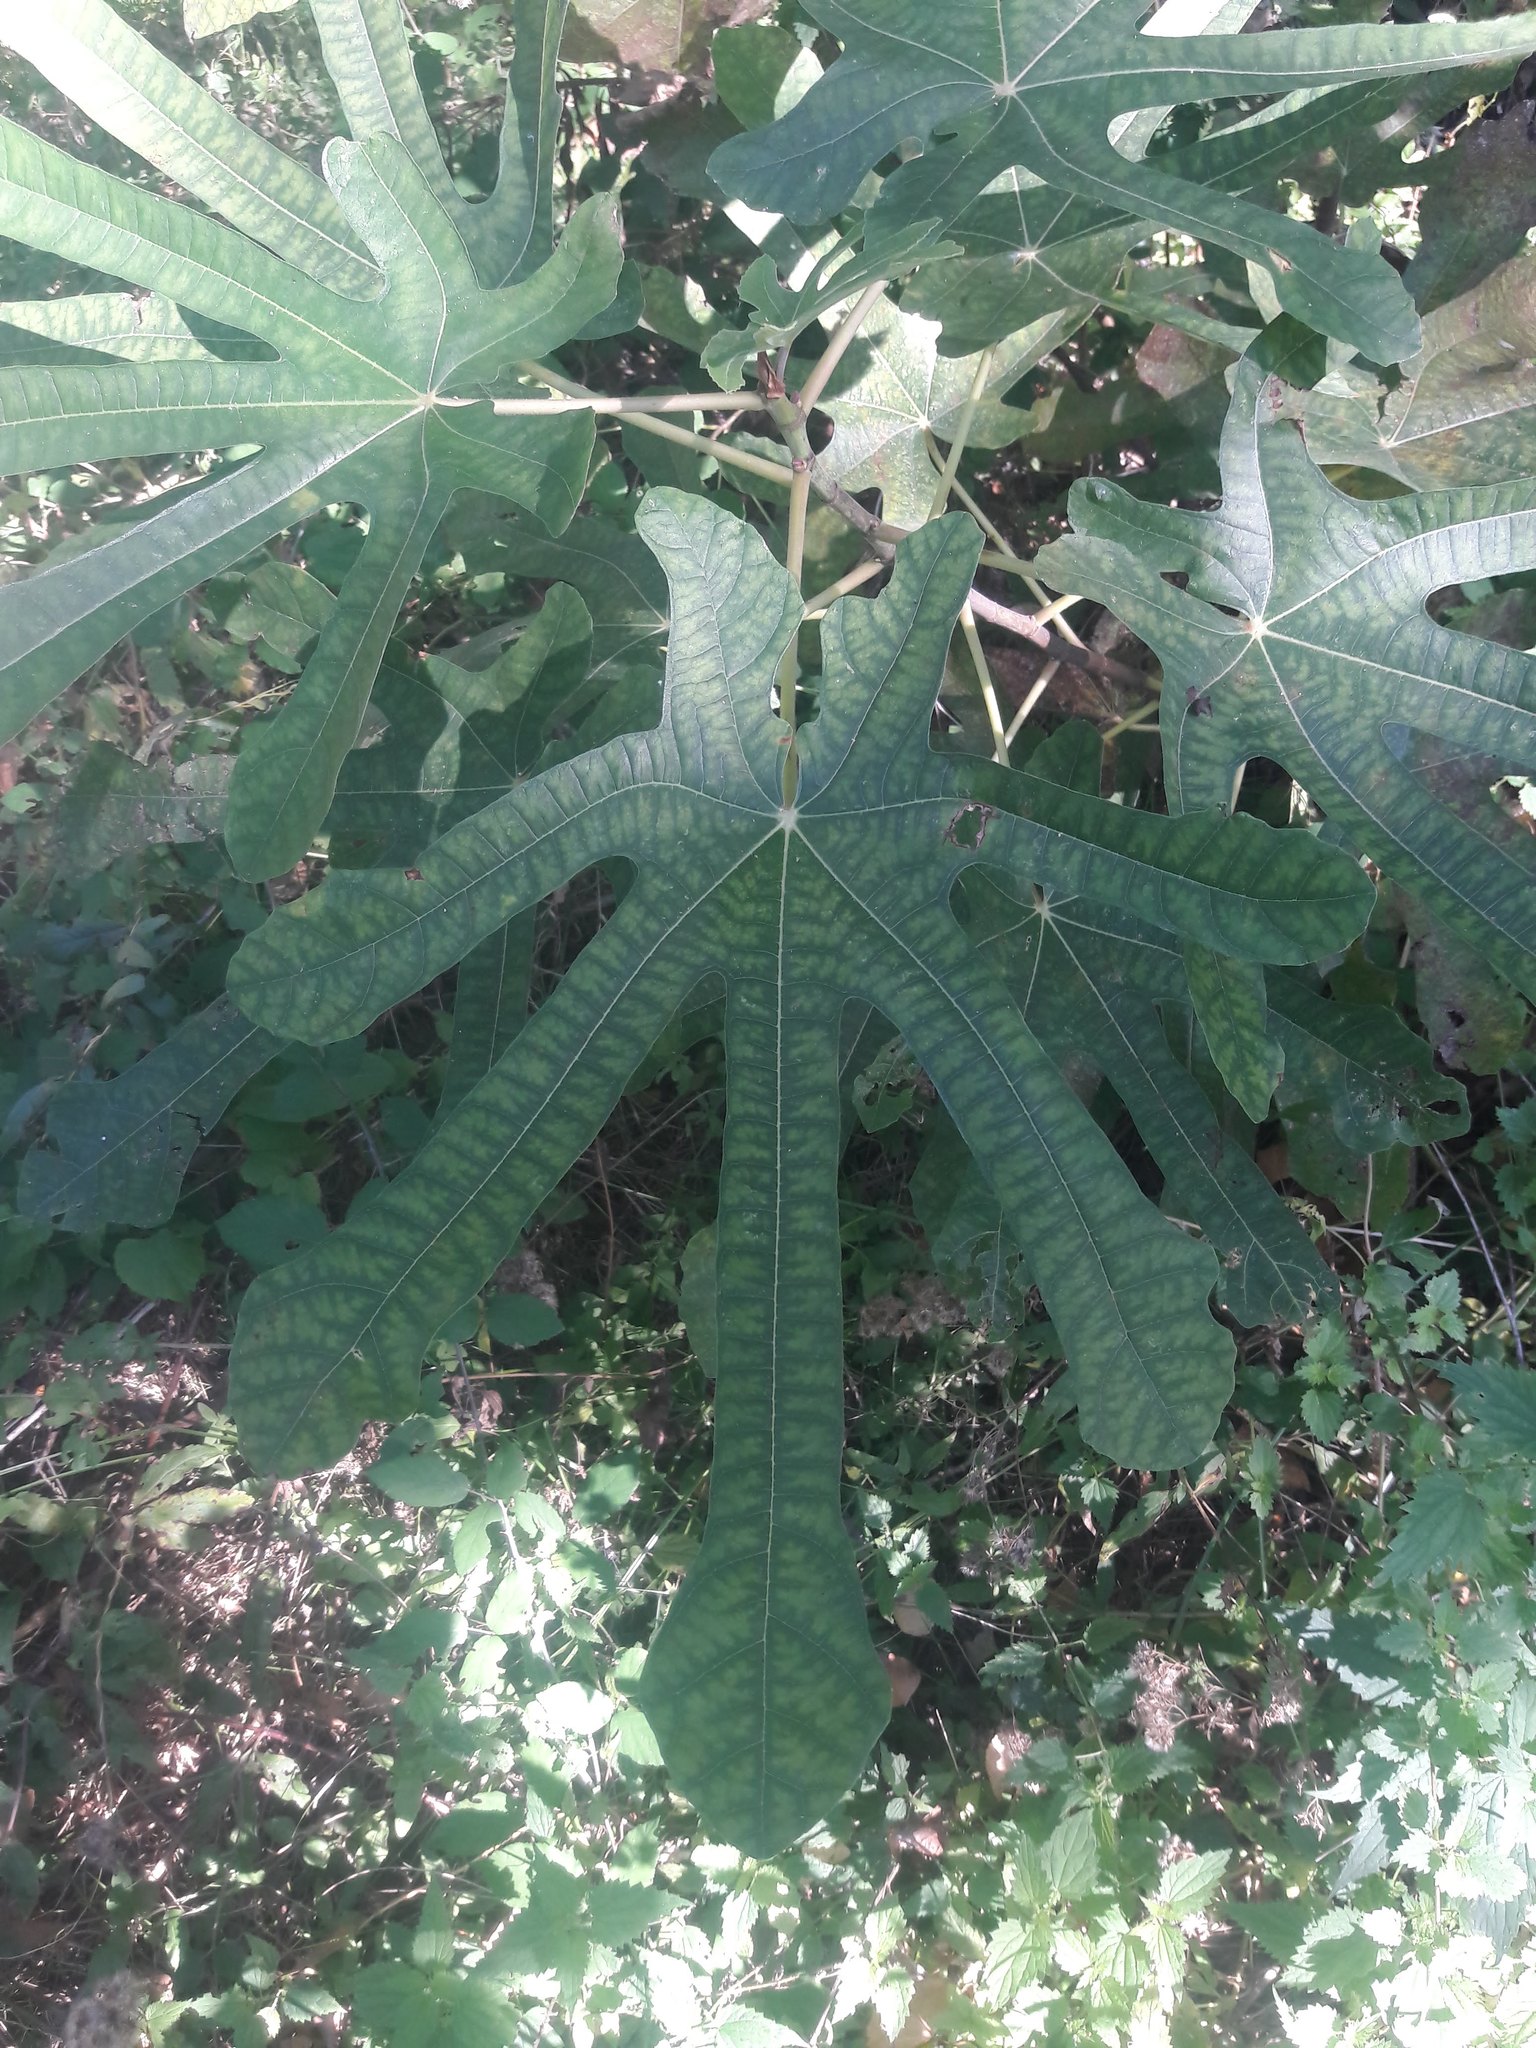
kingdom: Plantae
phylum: Tracheophyta
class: Magnoliopsida
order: Rosales
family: Moraceae
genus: Ficus
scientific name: Ficus carica
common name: Fig
